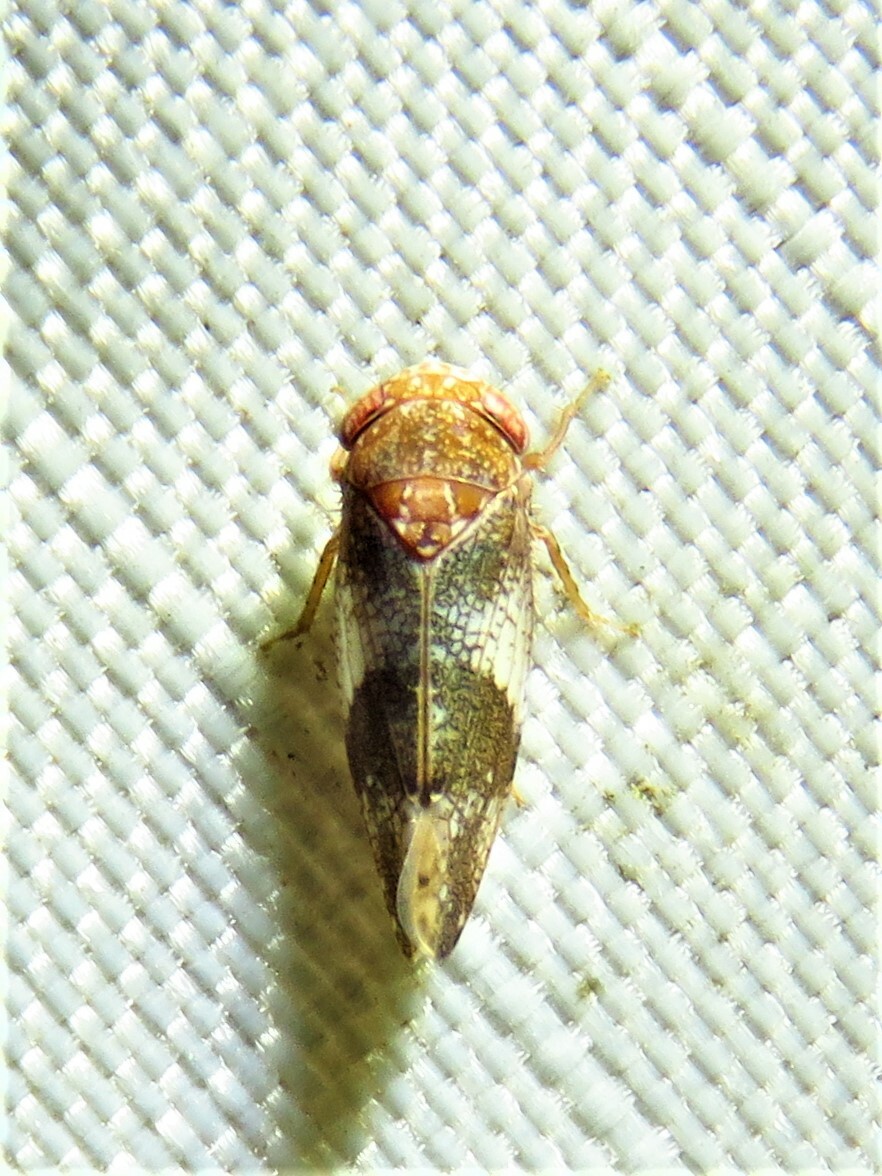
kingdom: Animalia
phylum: Arthropoda
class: Insecta
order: Hemiptera
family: Cicadellidae
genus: Norvellina
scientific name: Norvellina helenae
